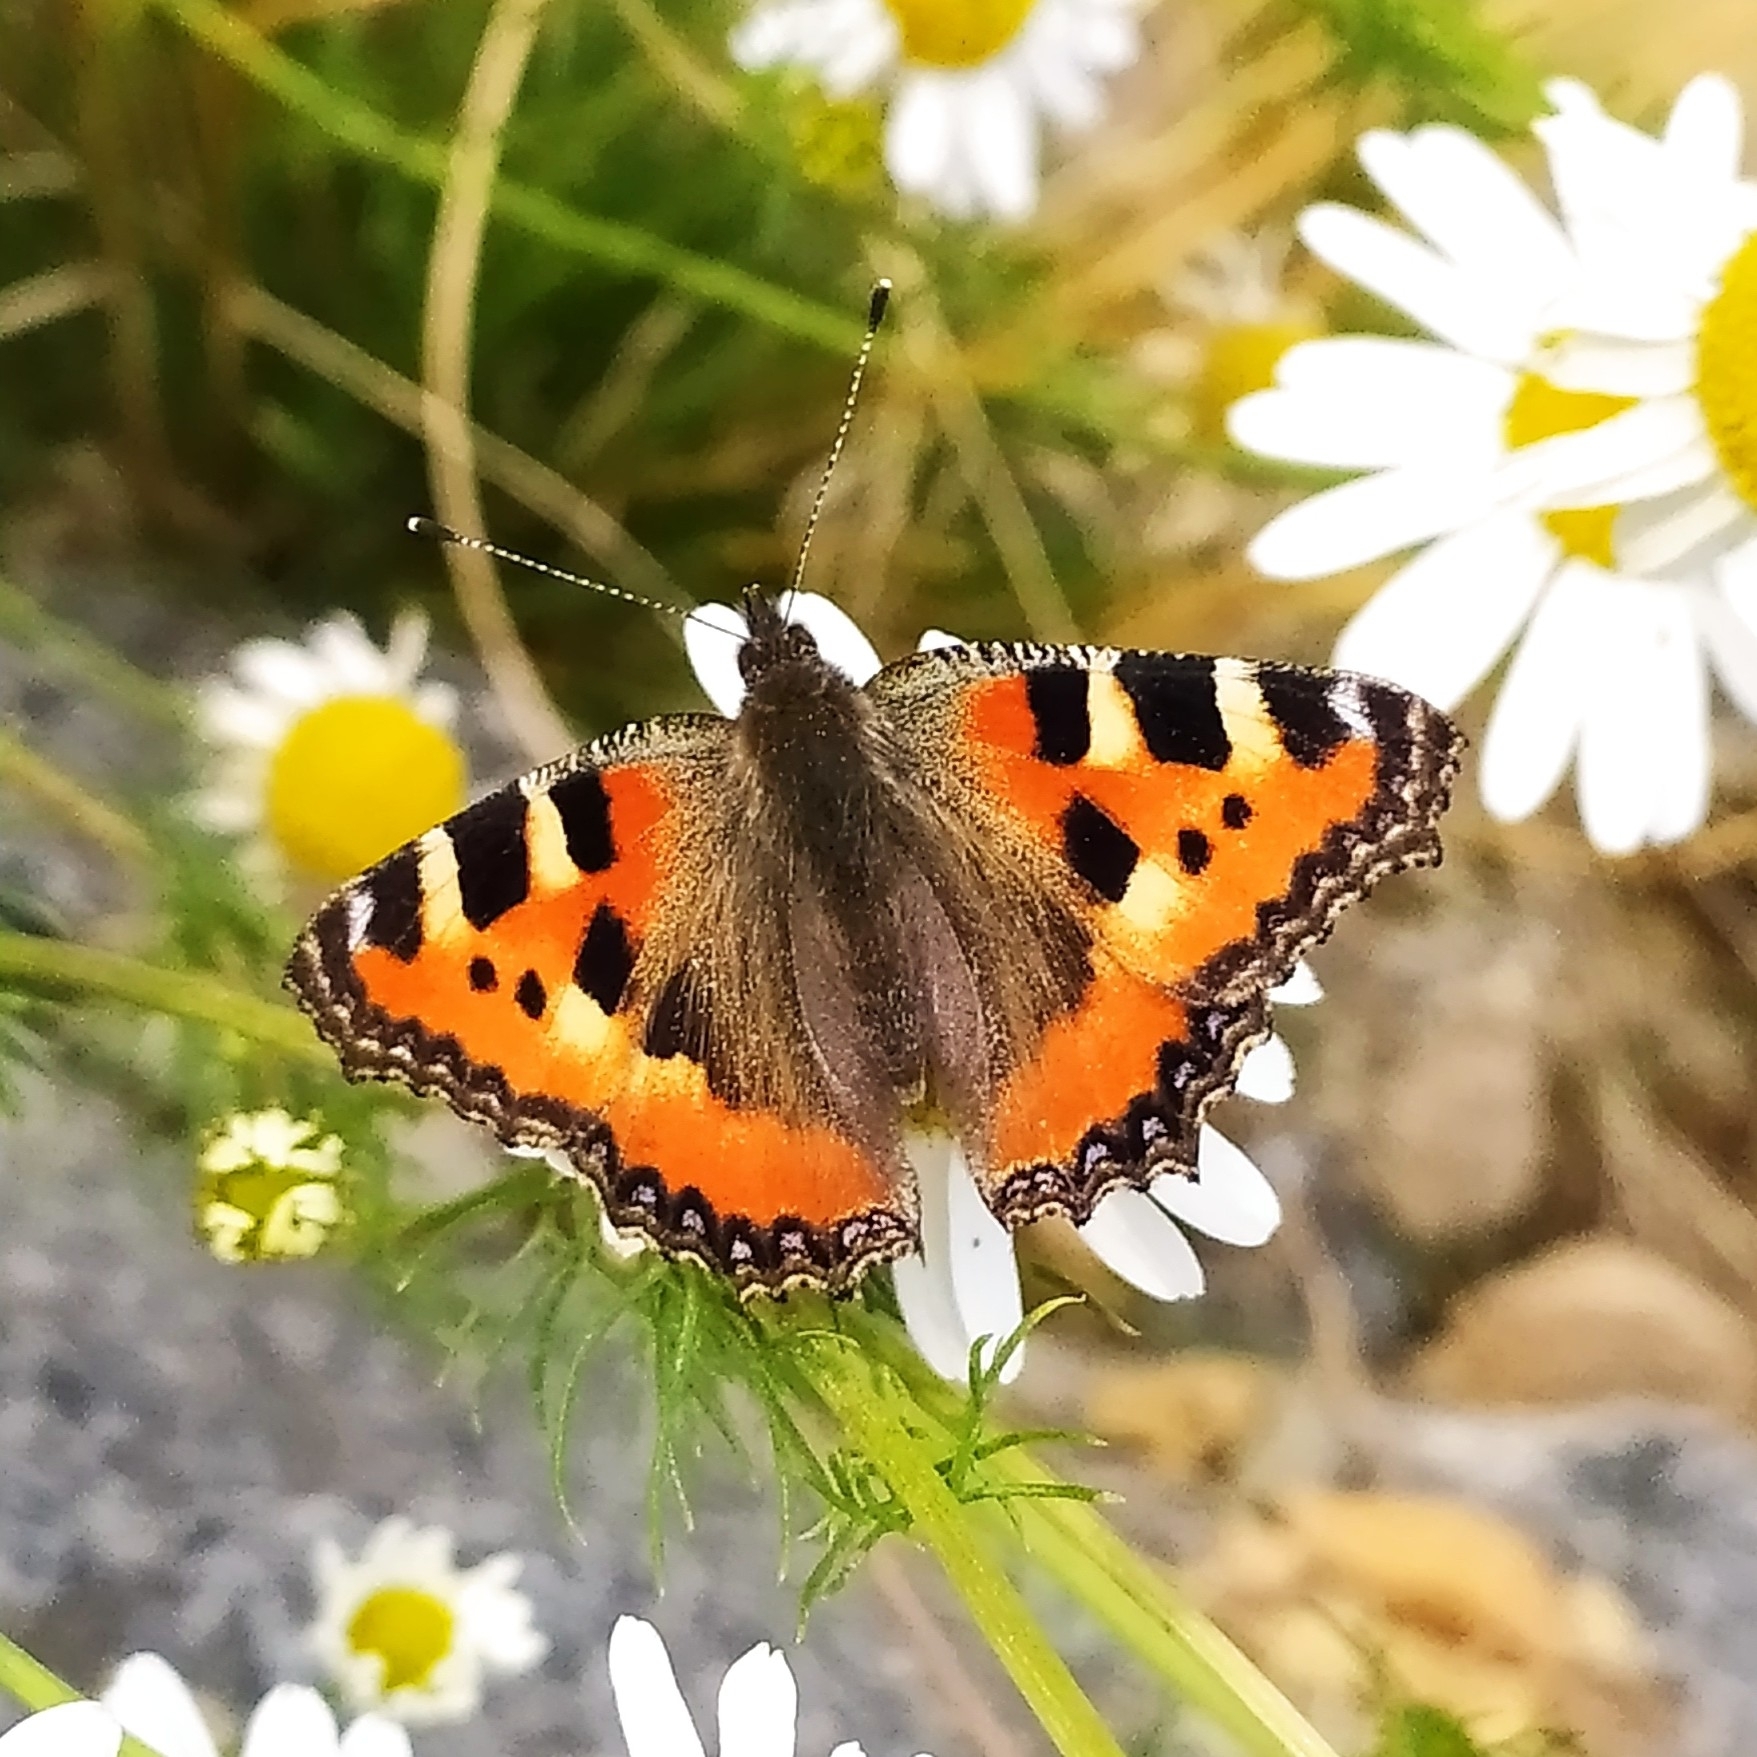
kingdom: Animalia
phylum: Arthropoda
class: Insecta
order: Lepidoptera
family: Nymphalidae
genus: Aglais
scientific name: Aglais urticae
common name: Small tortoiseshell
